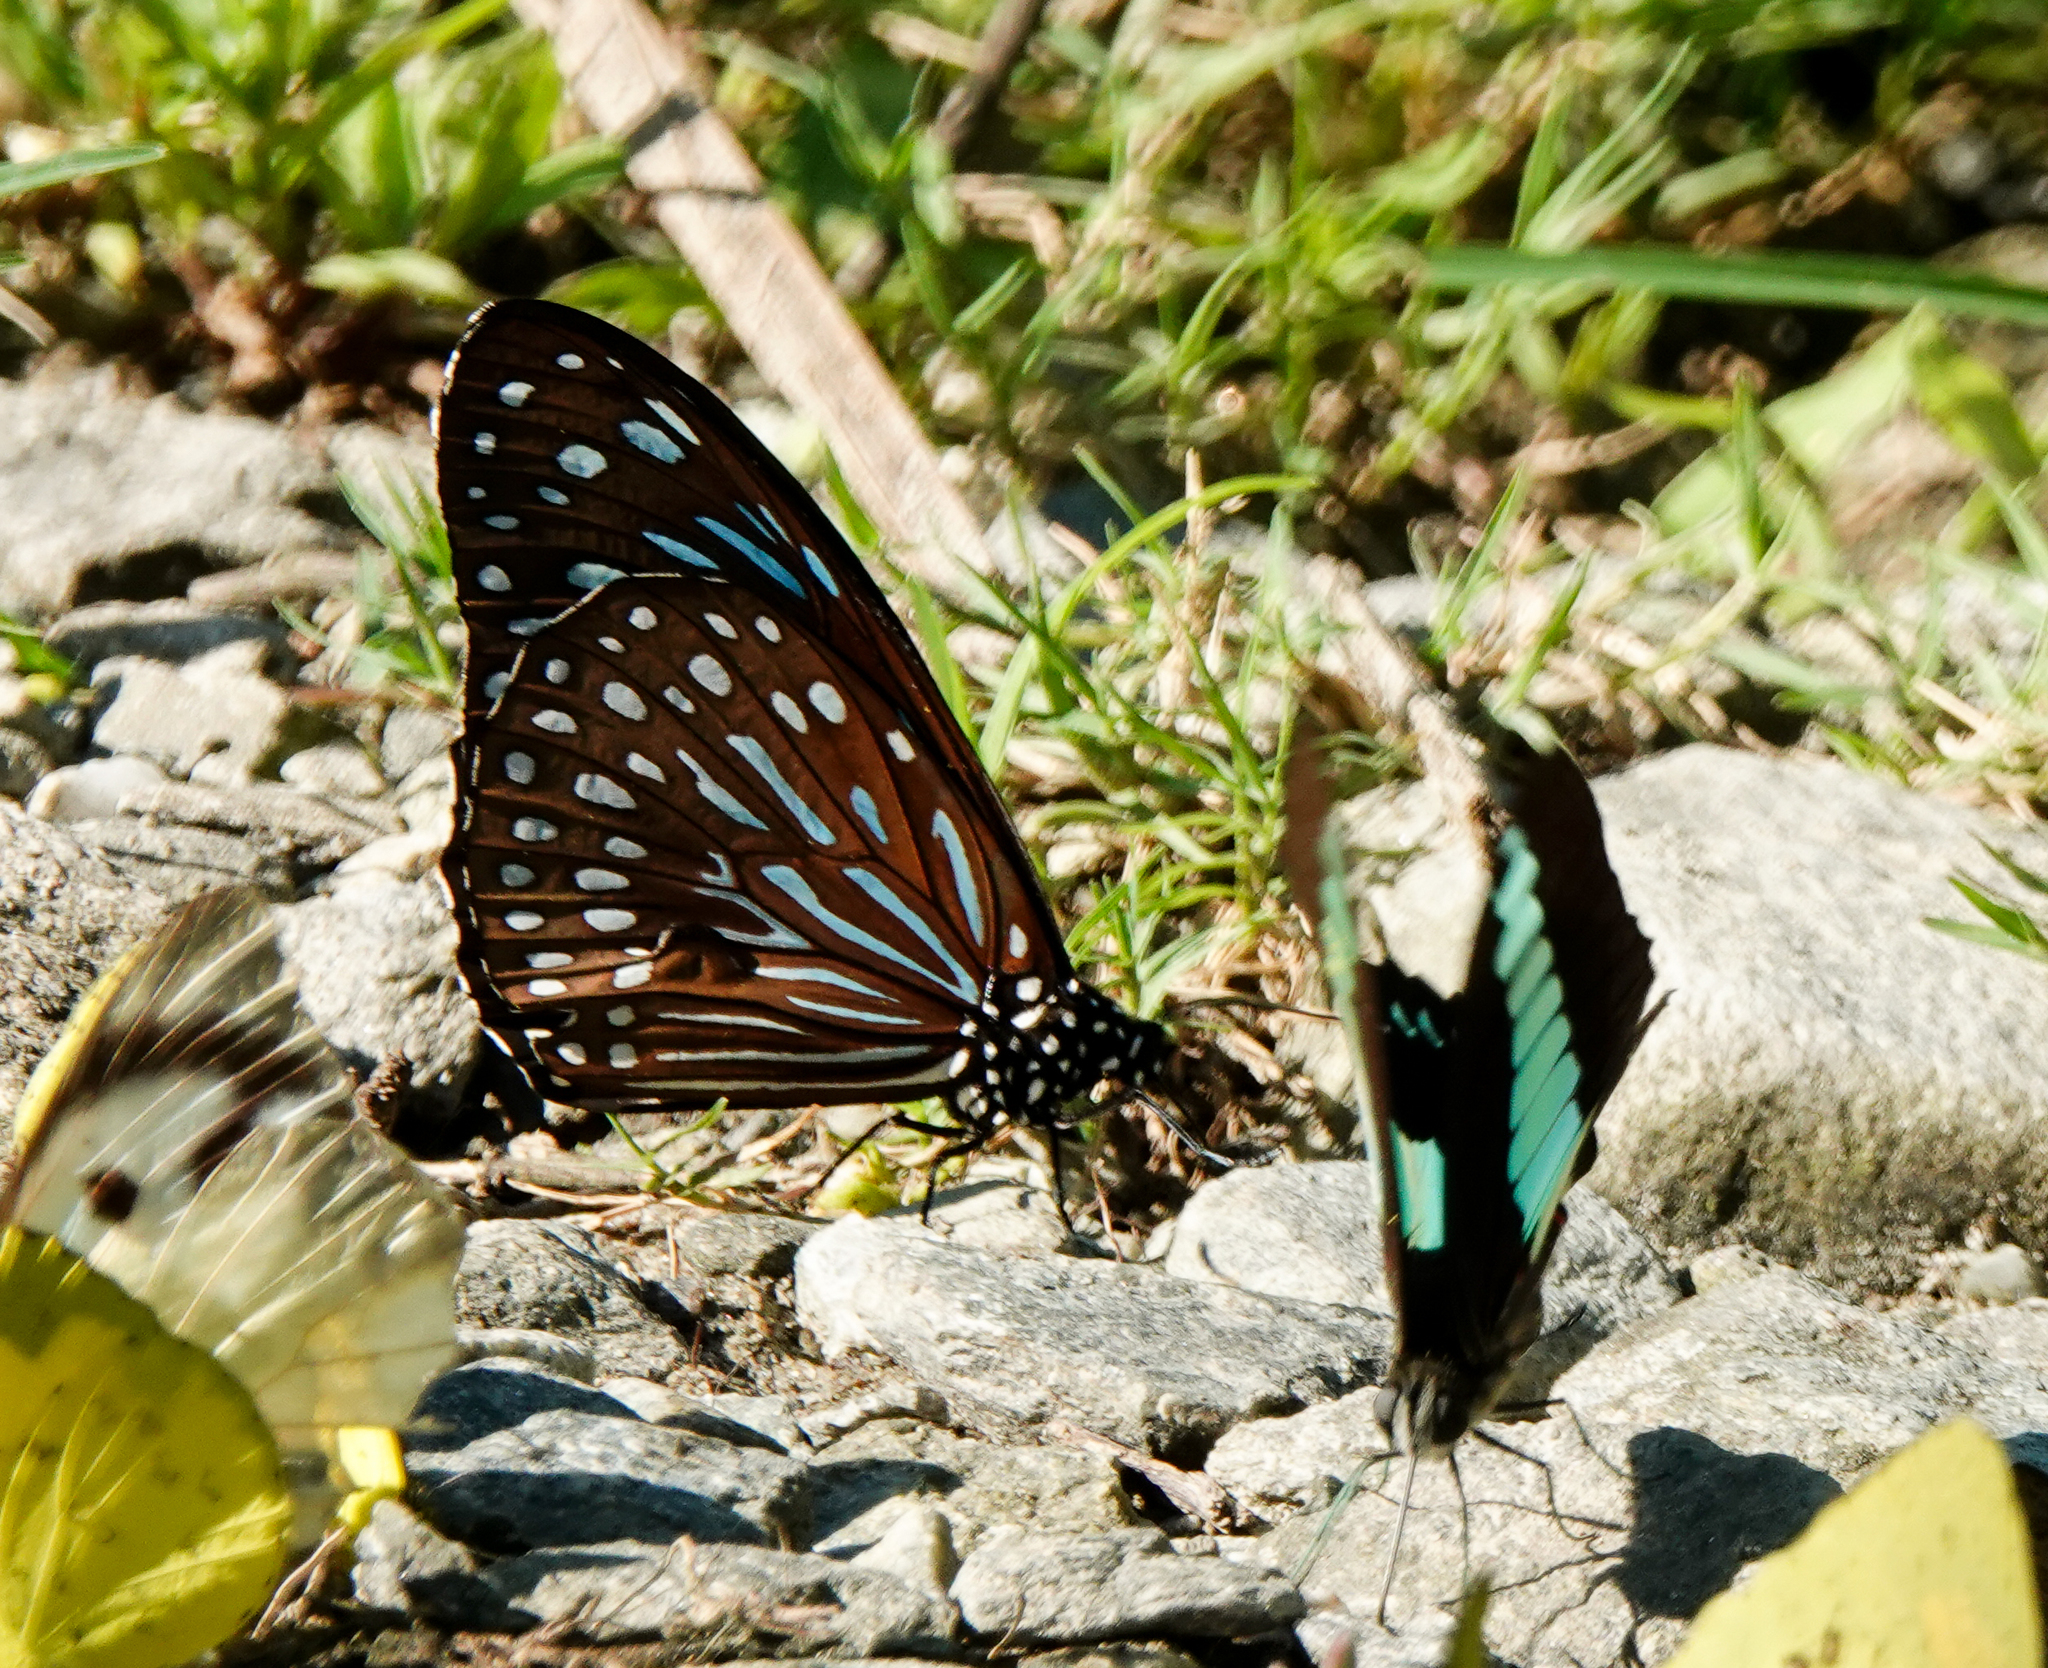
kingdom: Animalia
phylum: Arthropoda
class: Insecta
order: Lepidoptera
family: Nymphalidae
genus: Tirumala
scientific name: Tirumala septentrionis
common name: Dark blue tiger butterfly
